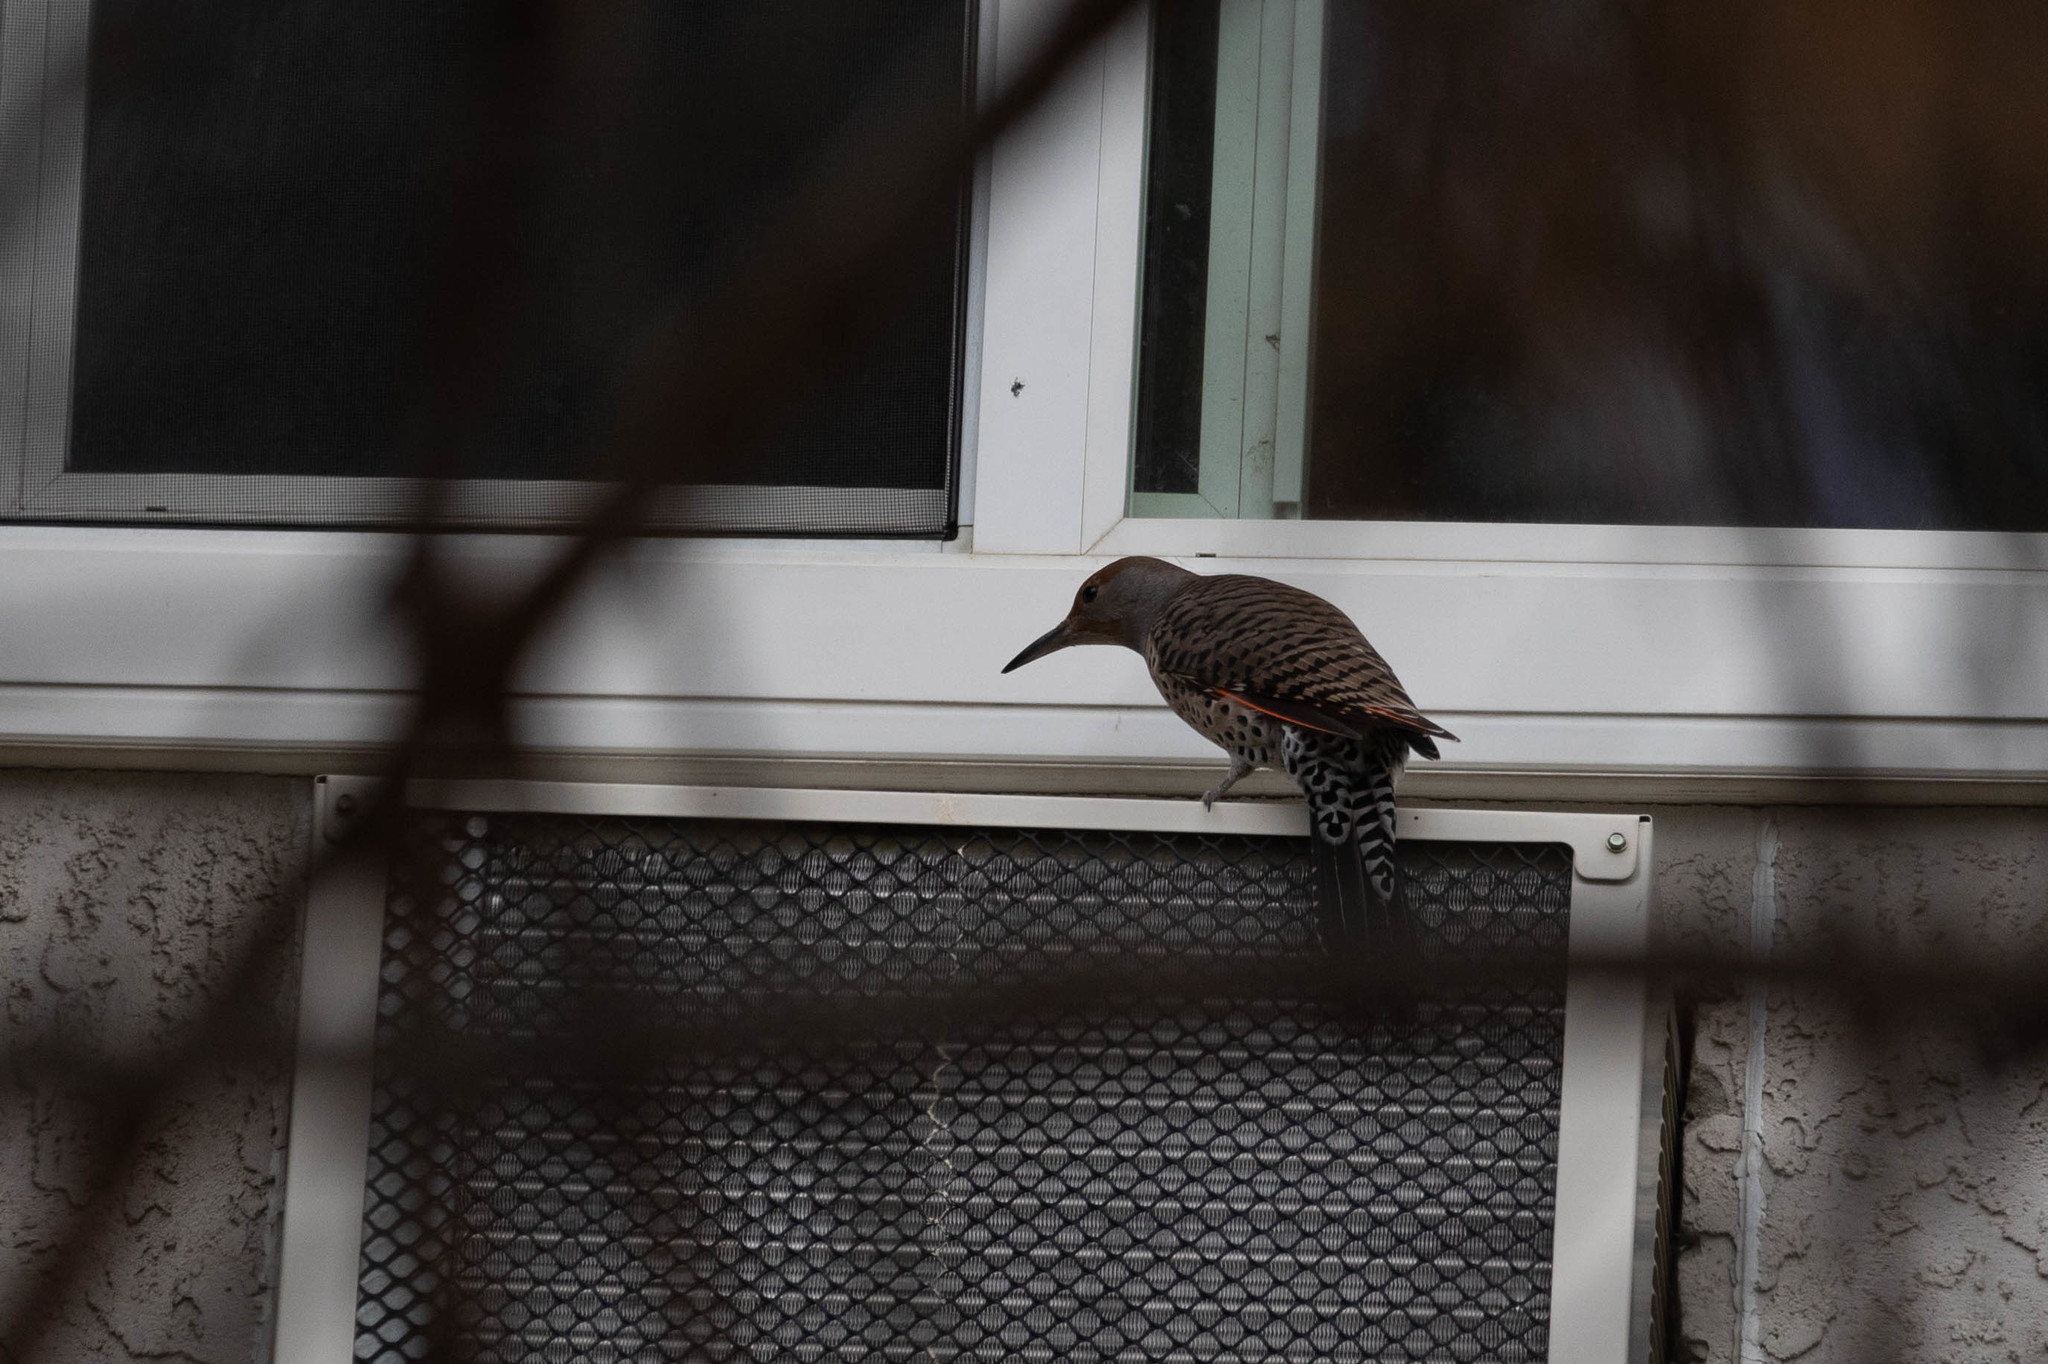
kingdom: Animalia
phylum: Chordata
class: Aves
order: Piciformes
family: Picidae
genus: Colaptes
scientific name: Colaptes auratus
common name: Northern flicker
